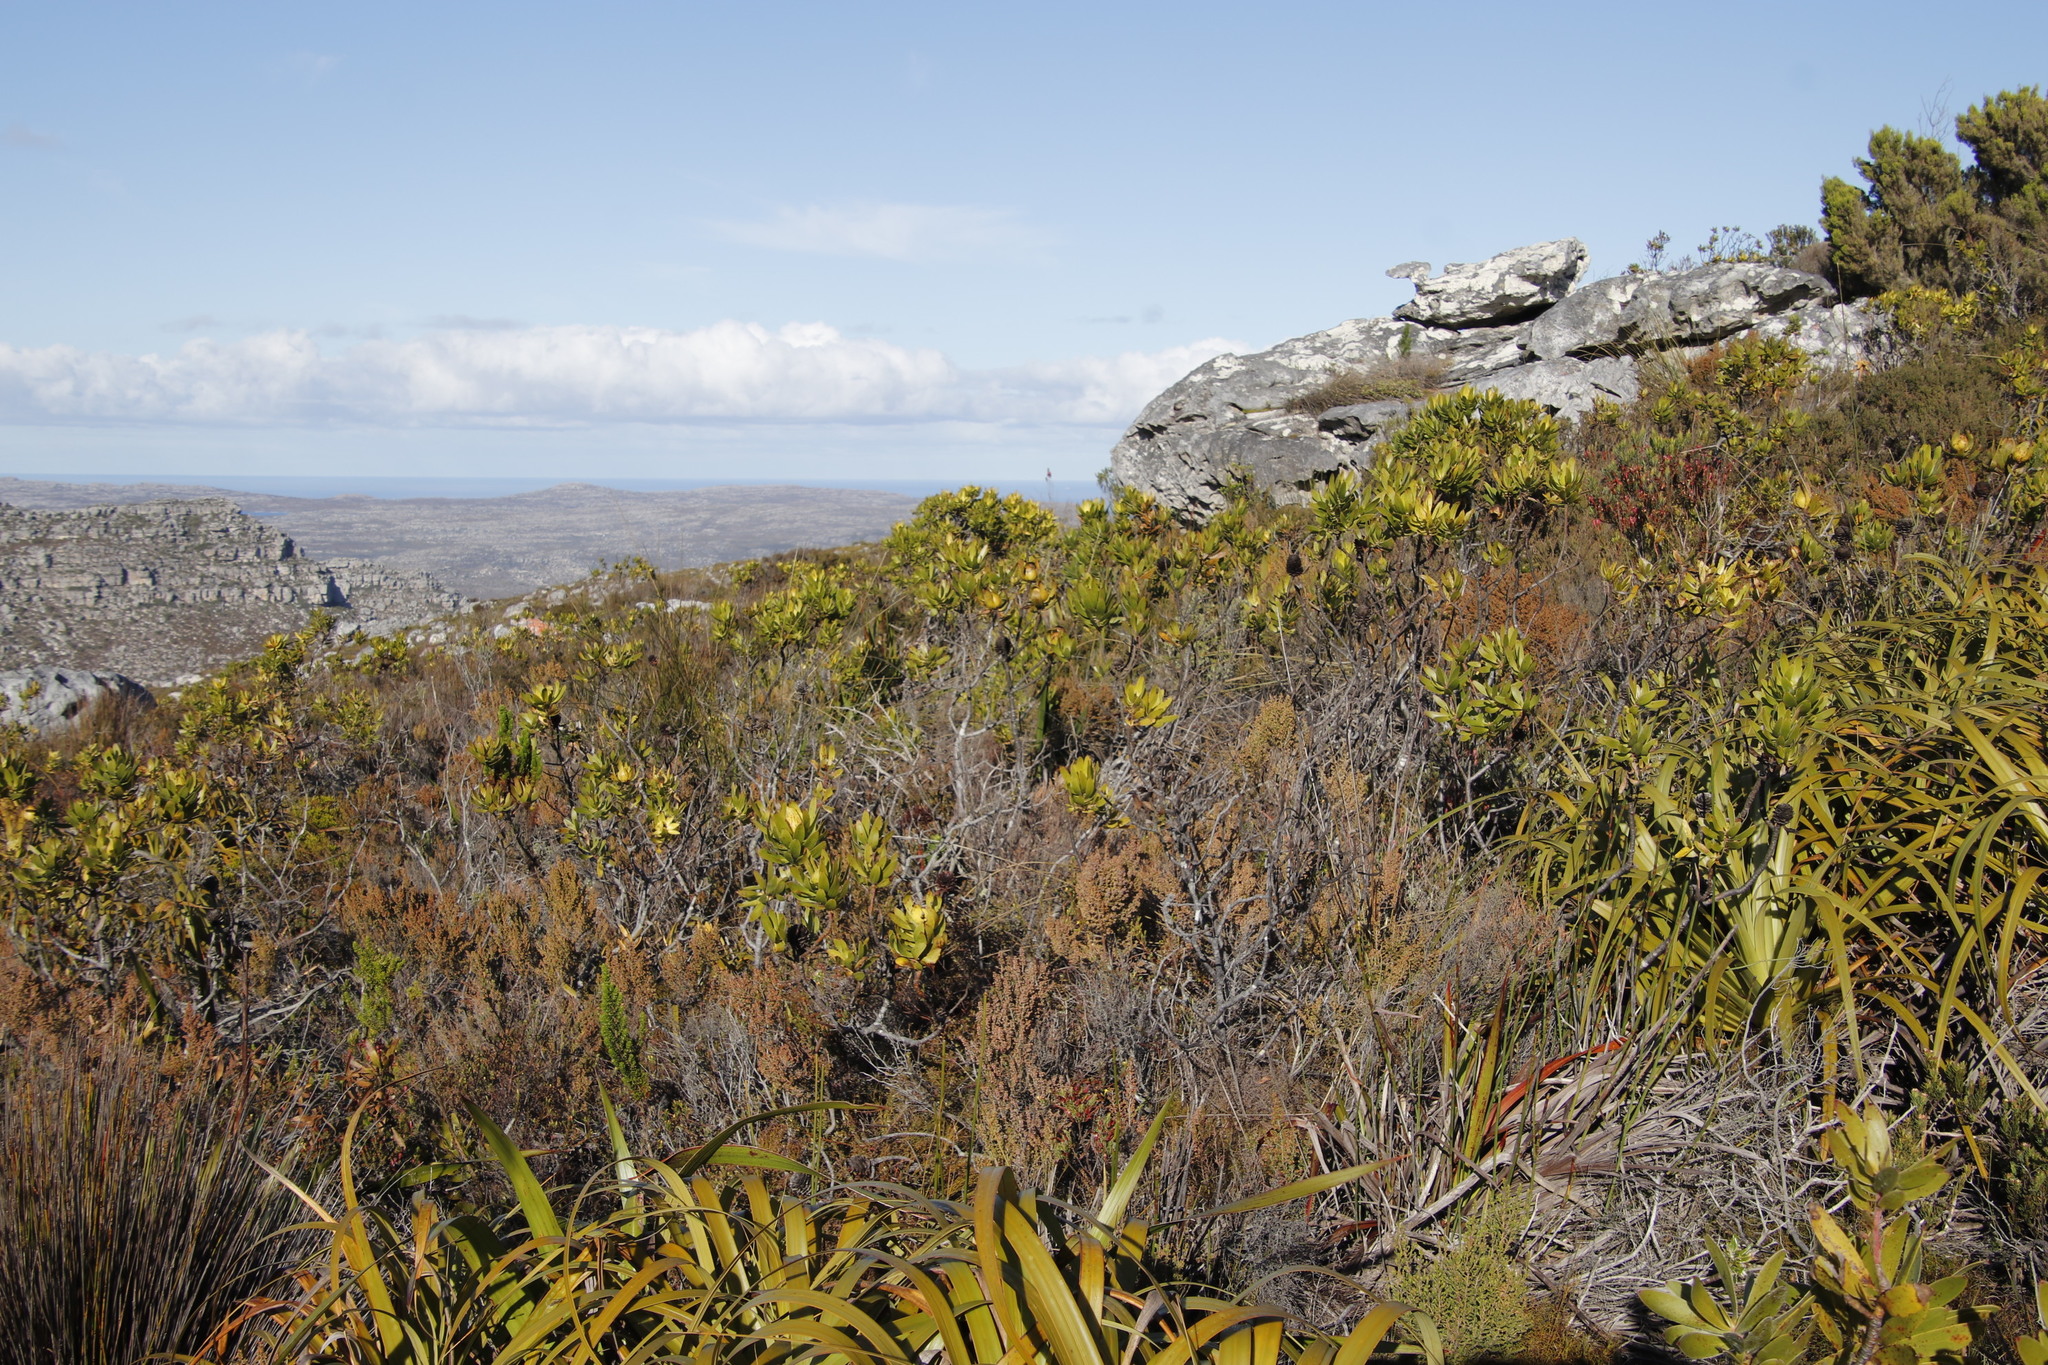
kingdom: Plantae
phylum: Tracheophyta
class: Magnoliopsida
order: Proteales
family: Proteaceae
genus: Leucadendron
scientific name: Leucadendron laureolum
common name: Golden sunshinebush
